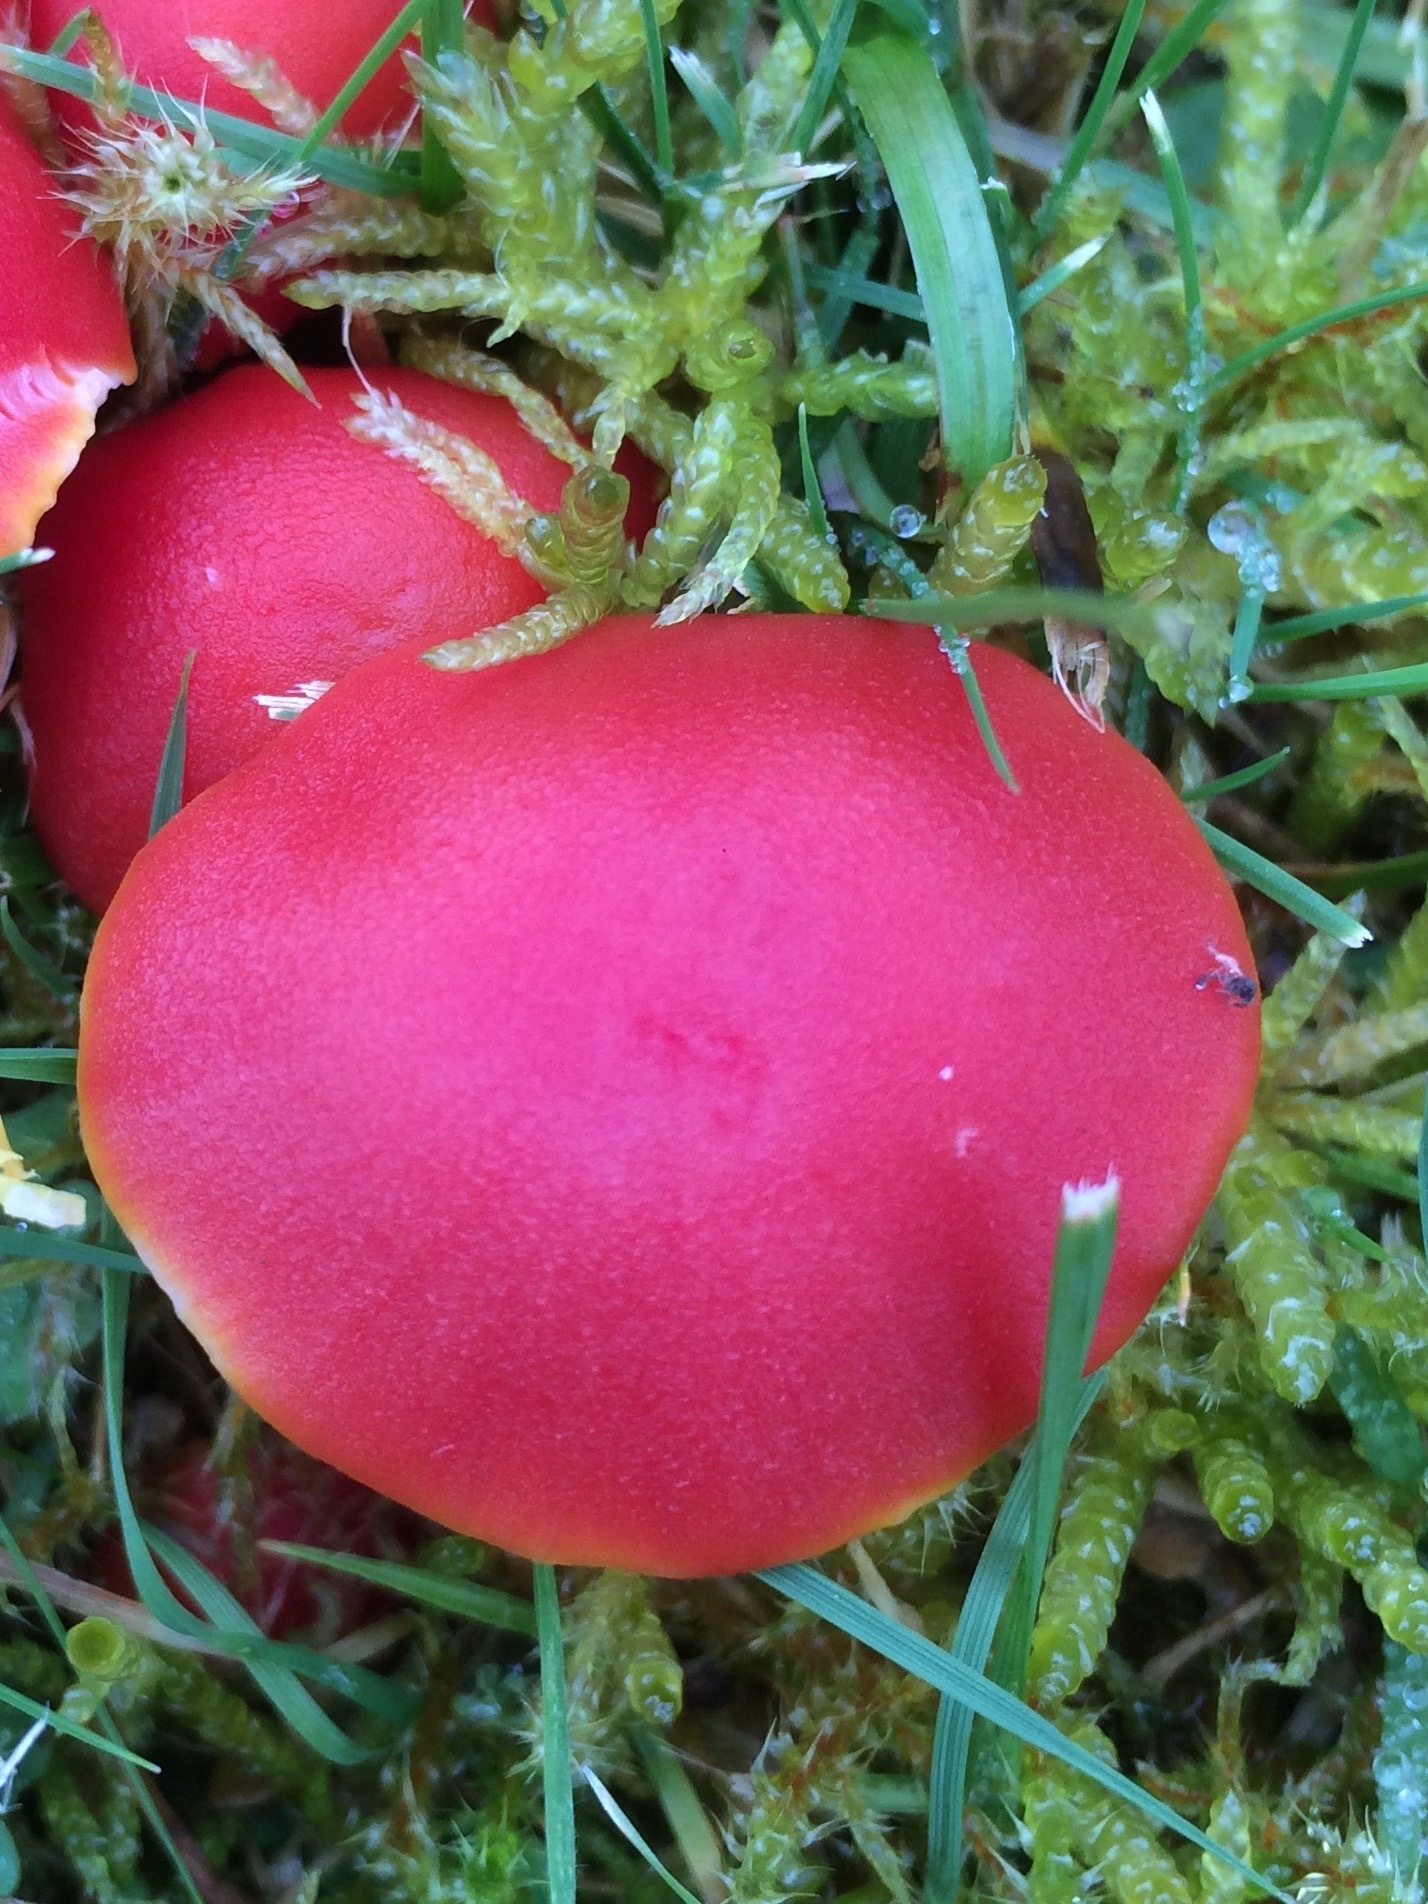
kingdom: Fungi
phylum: Basidiomycota
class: Agaricomycetes
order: Agaricales
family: Hygrophoraceae
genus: Hygrocybe
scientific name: Hygrocybe coccinea
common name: Scarlet hood
